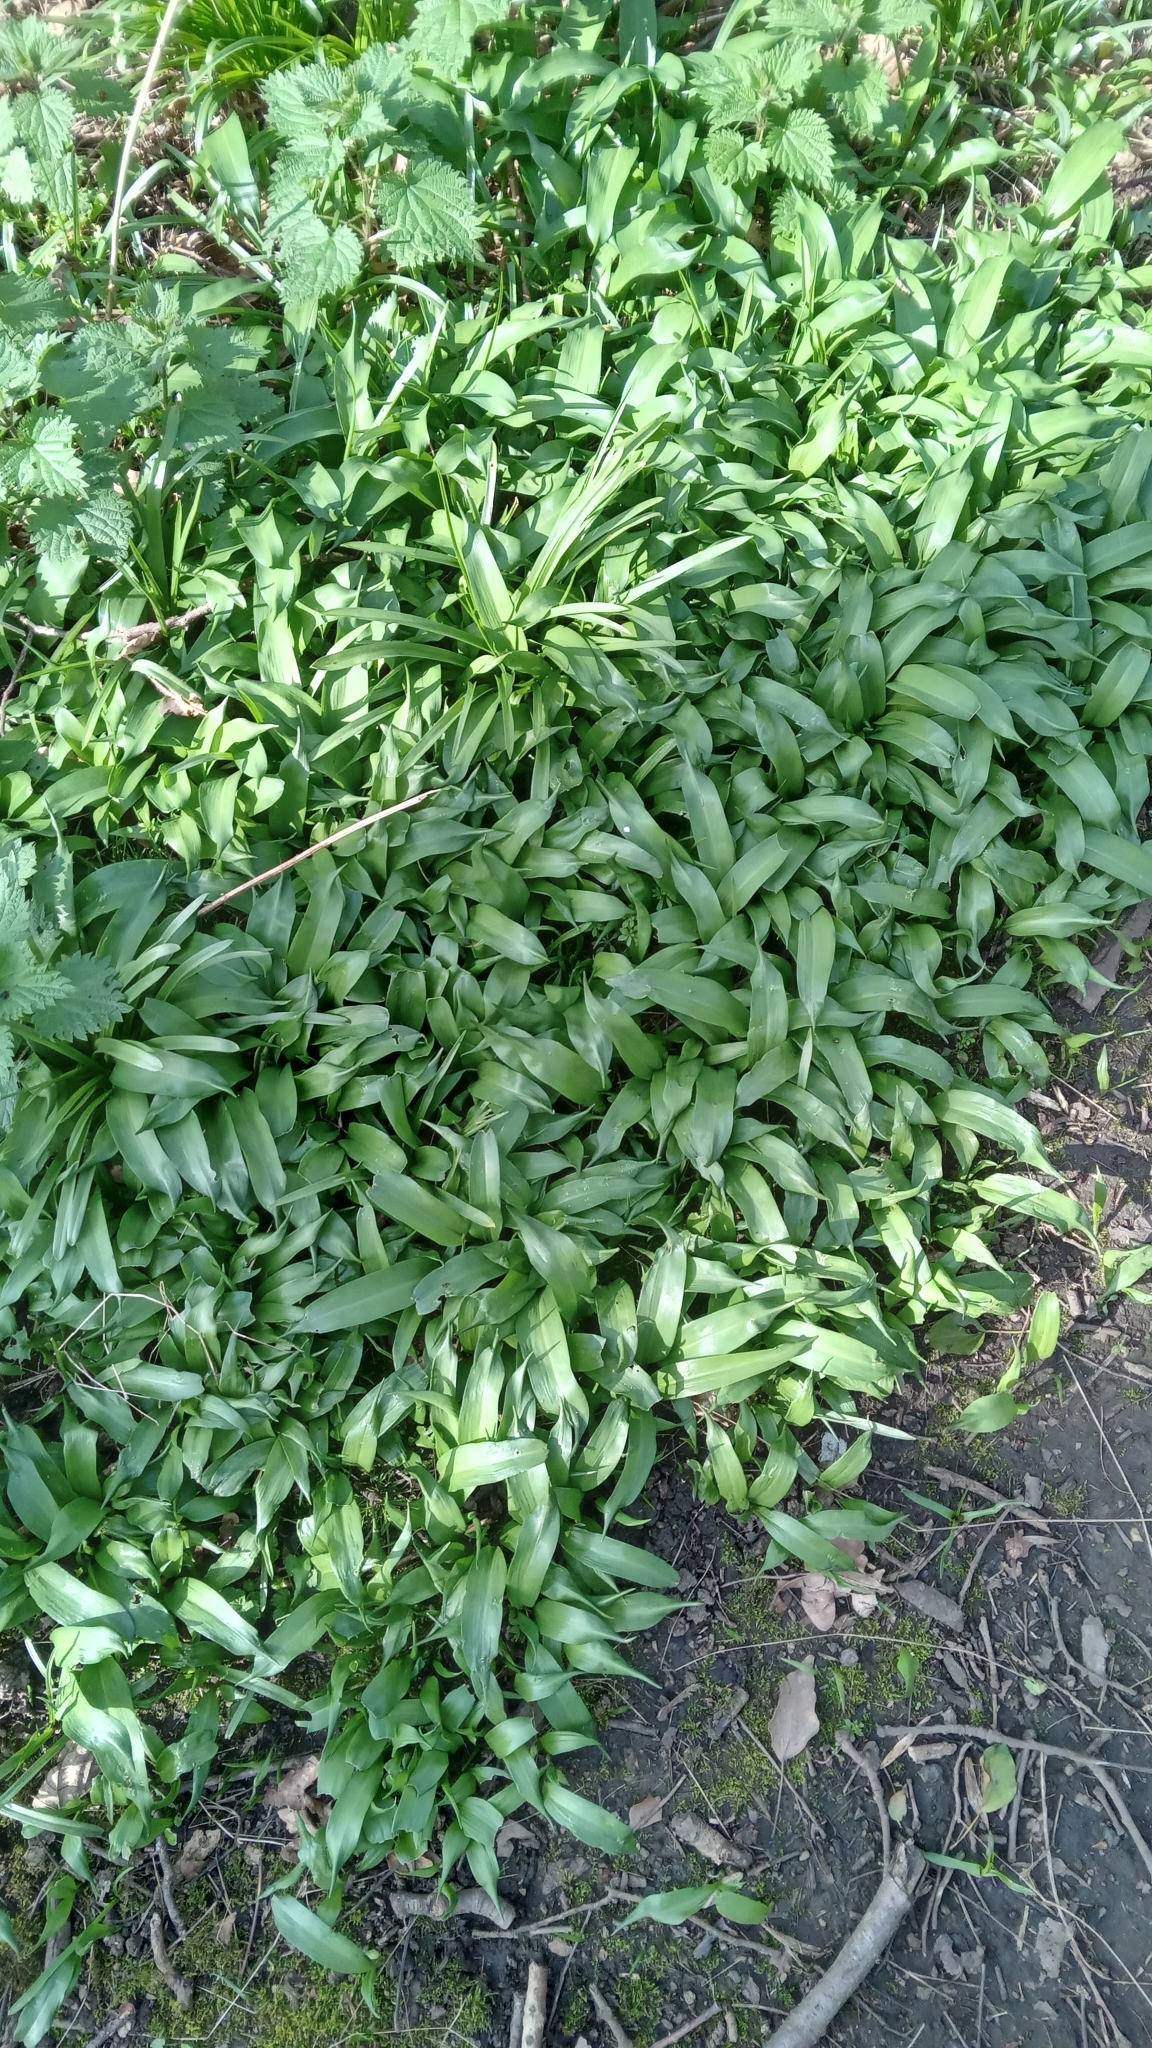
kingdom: Plantae
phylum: Tracheophyta
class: Liliopsida
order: Asparagales
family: Amaryllidaceae
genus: Allium
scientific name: Allium ursinum
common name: Ramsons
